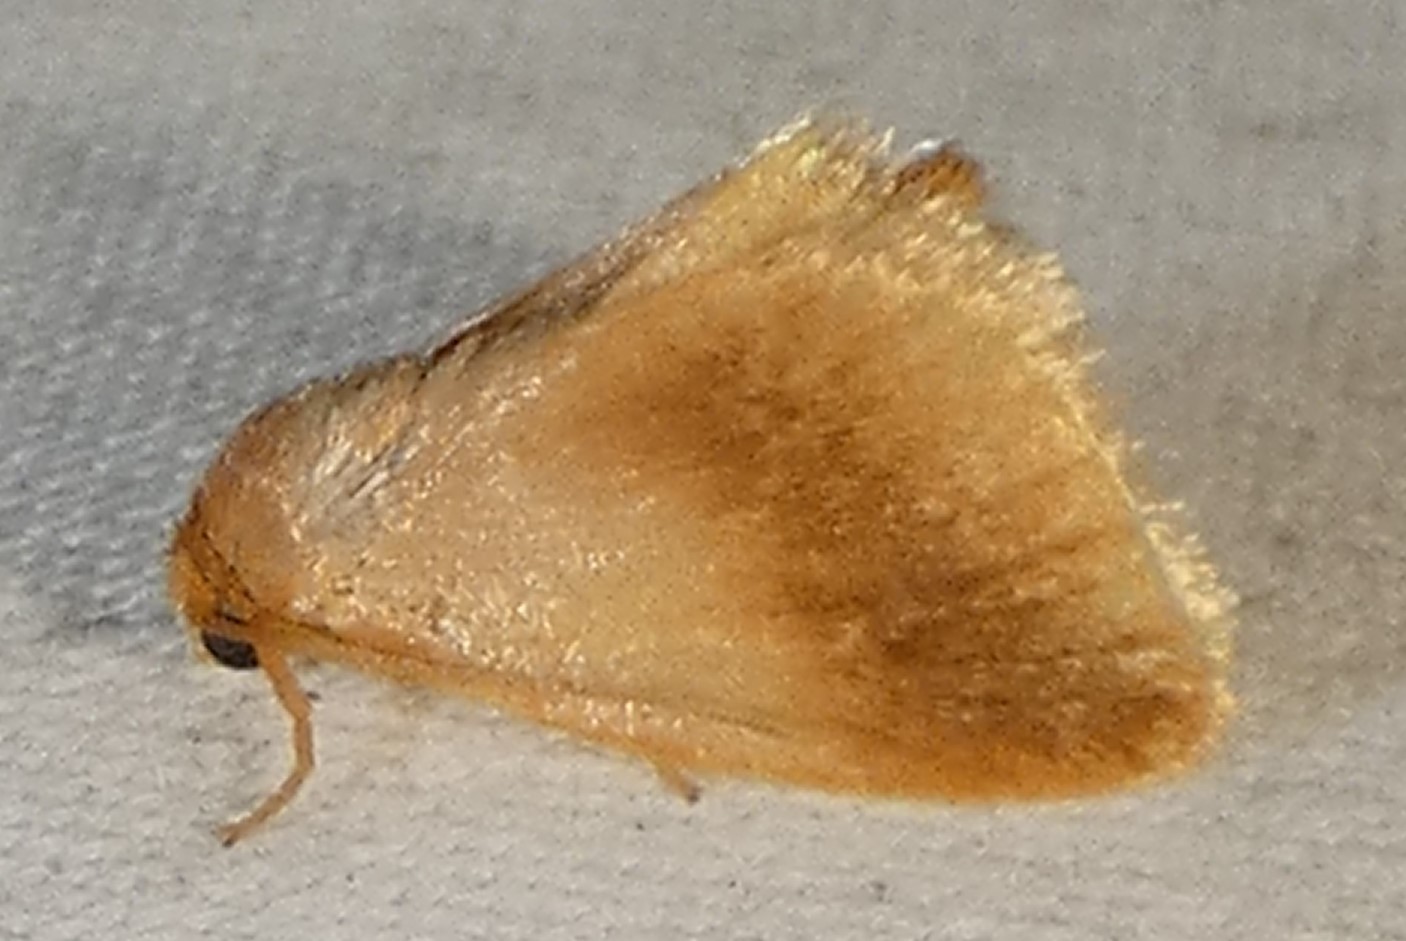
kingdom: Animalia
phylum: Arthropoda
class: Insecta
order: Lepidoptera
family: Limacodidae
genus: Tortricidia
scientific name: Tortricidia testacea
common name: Early button slug moth
